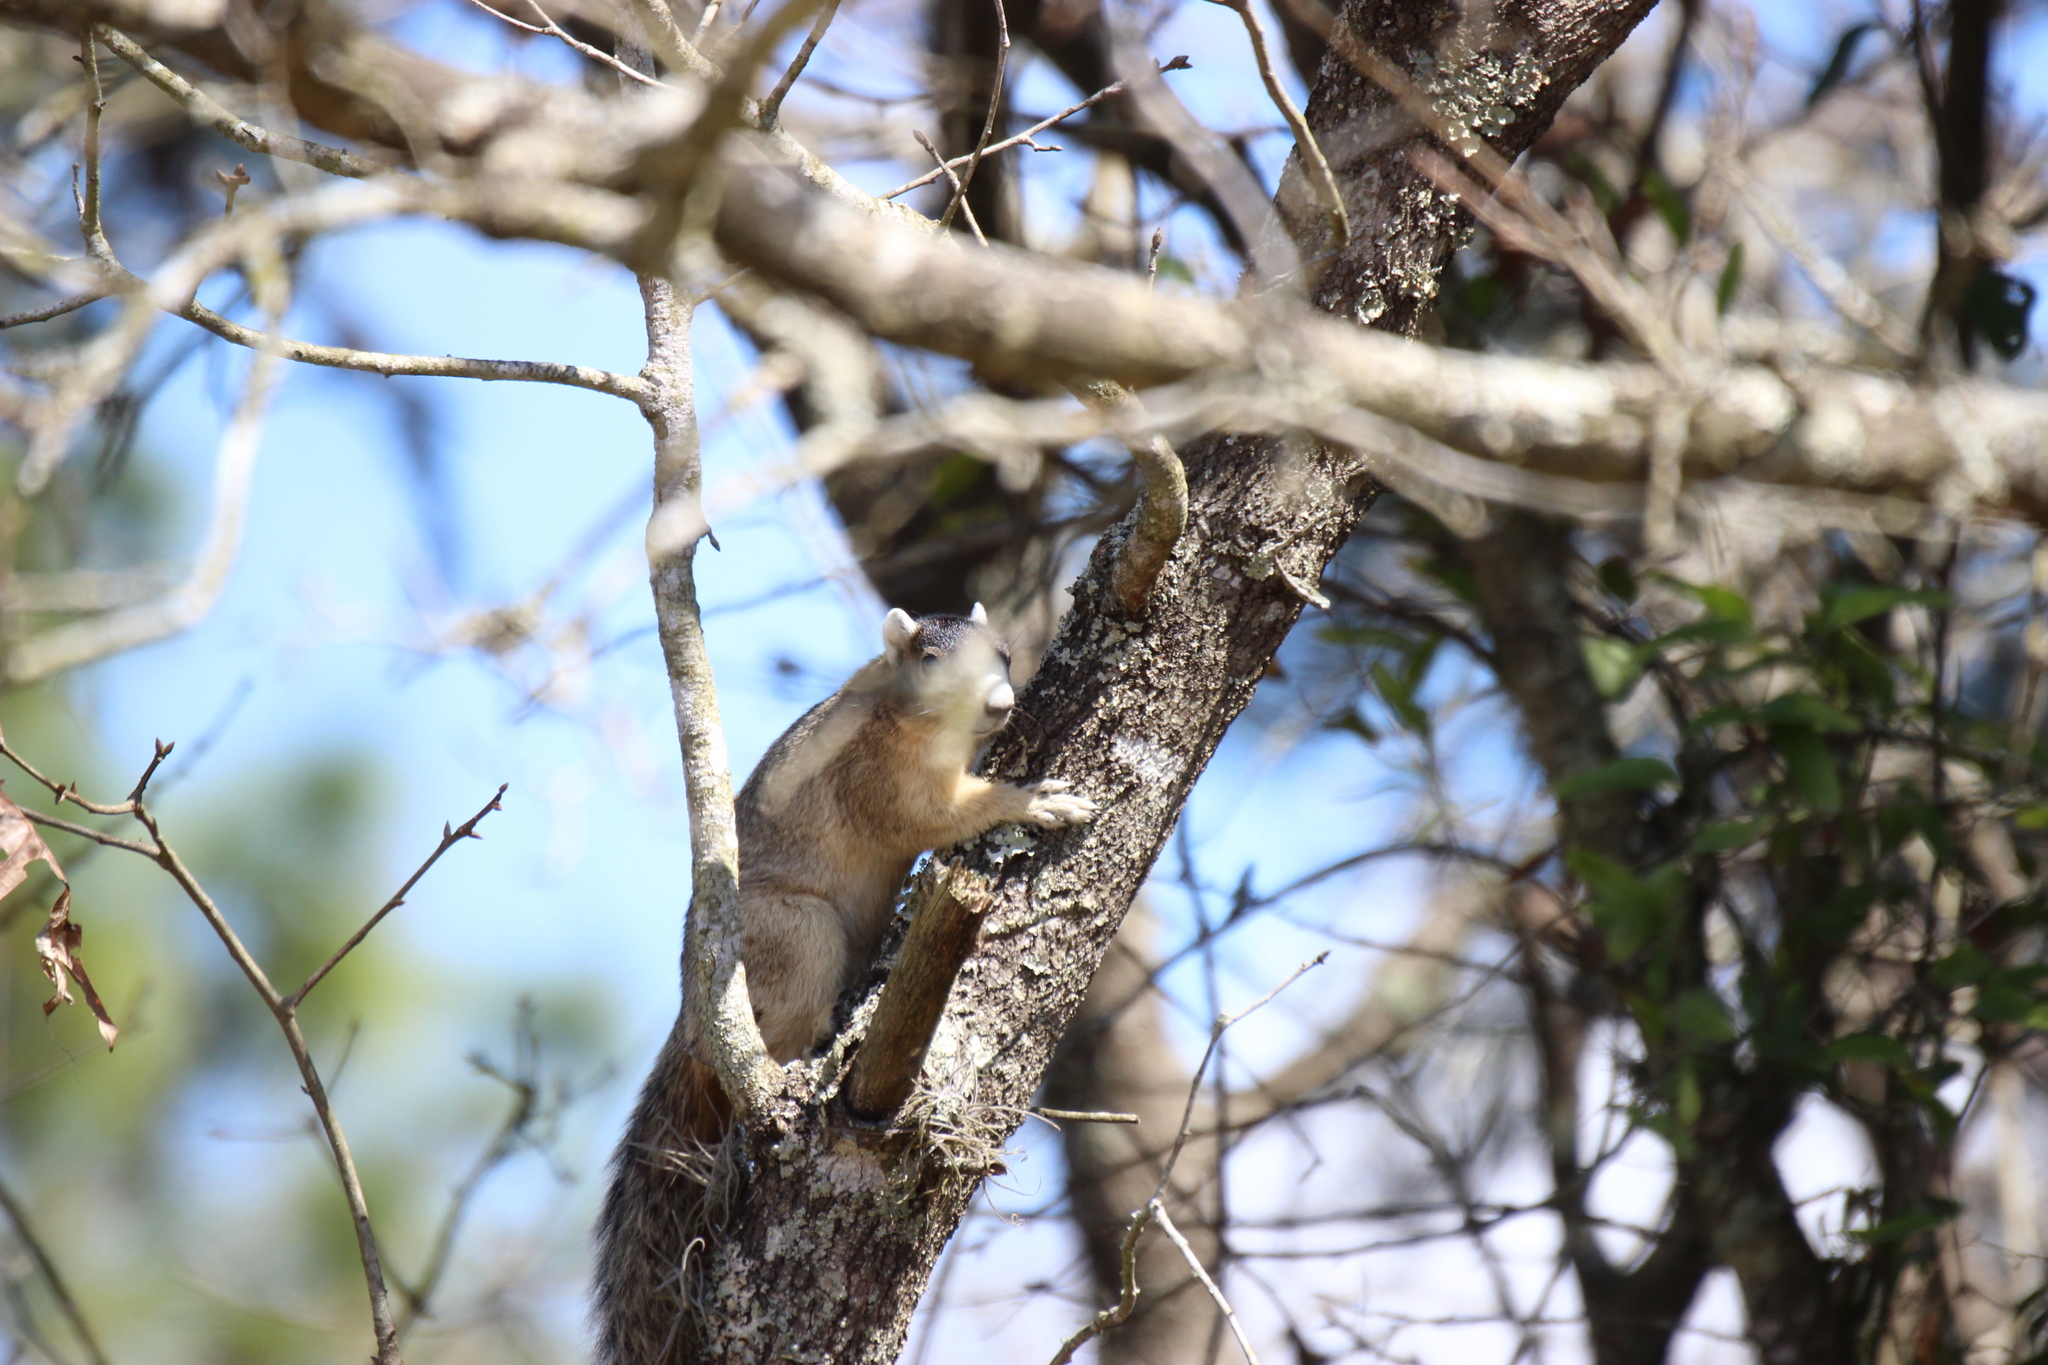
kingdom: Animalia
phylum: Chordata
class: Mammalia
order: Rodentia
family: Sciuridae
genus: Sciurus
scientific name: Sciurus niger
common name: Fox squirrel
